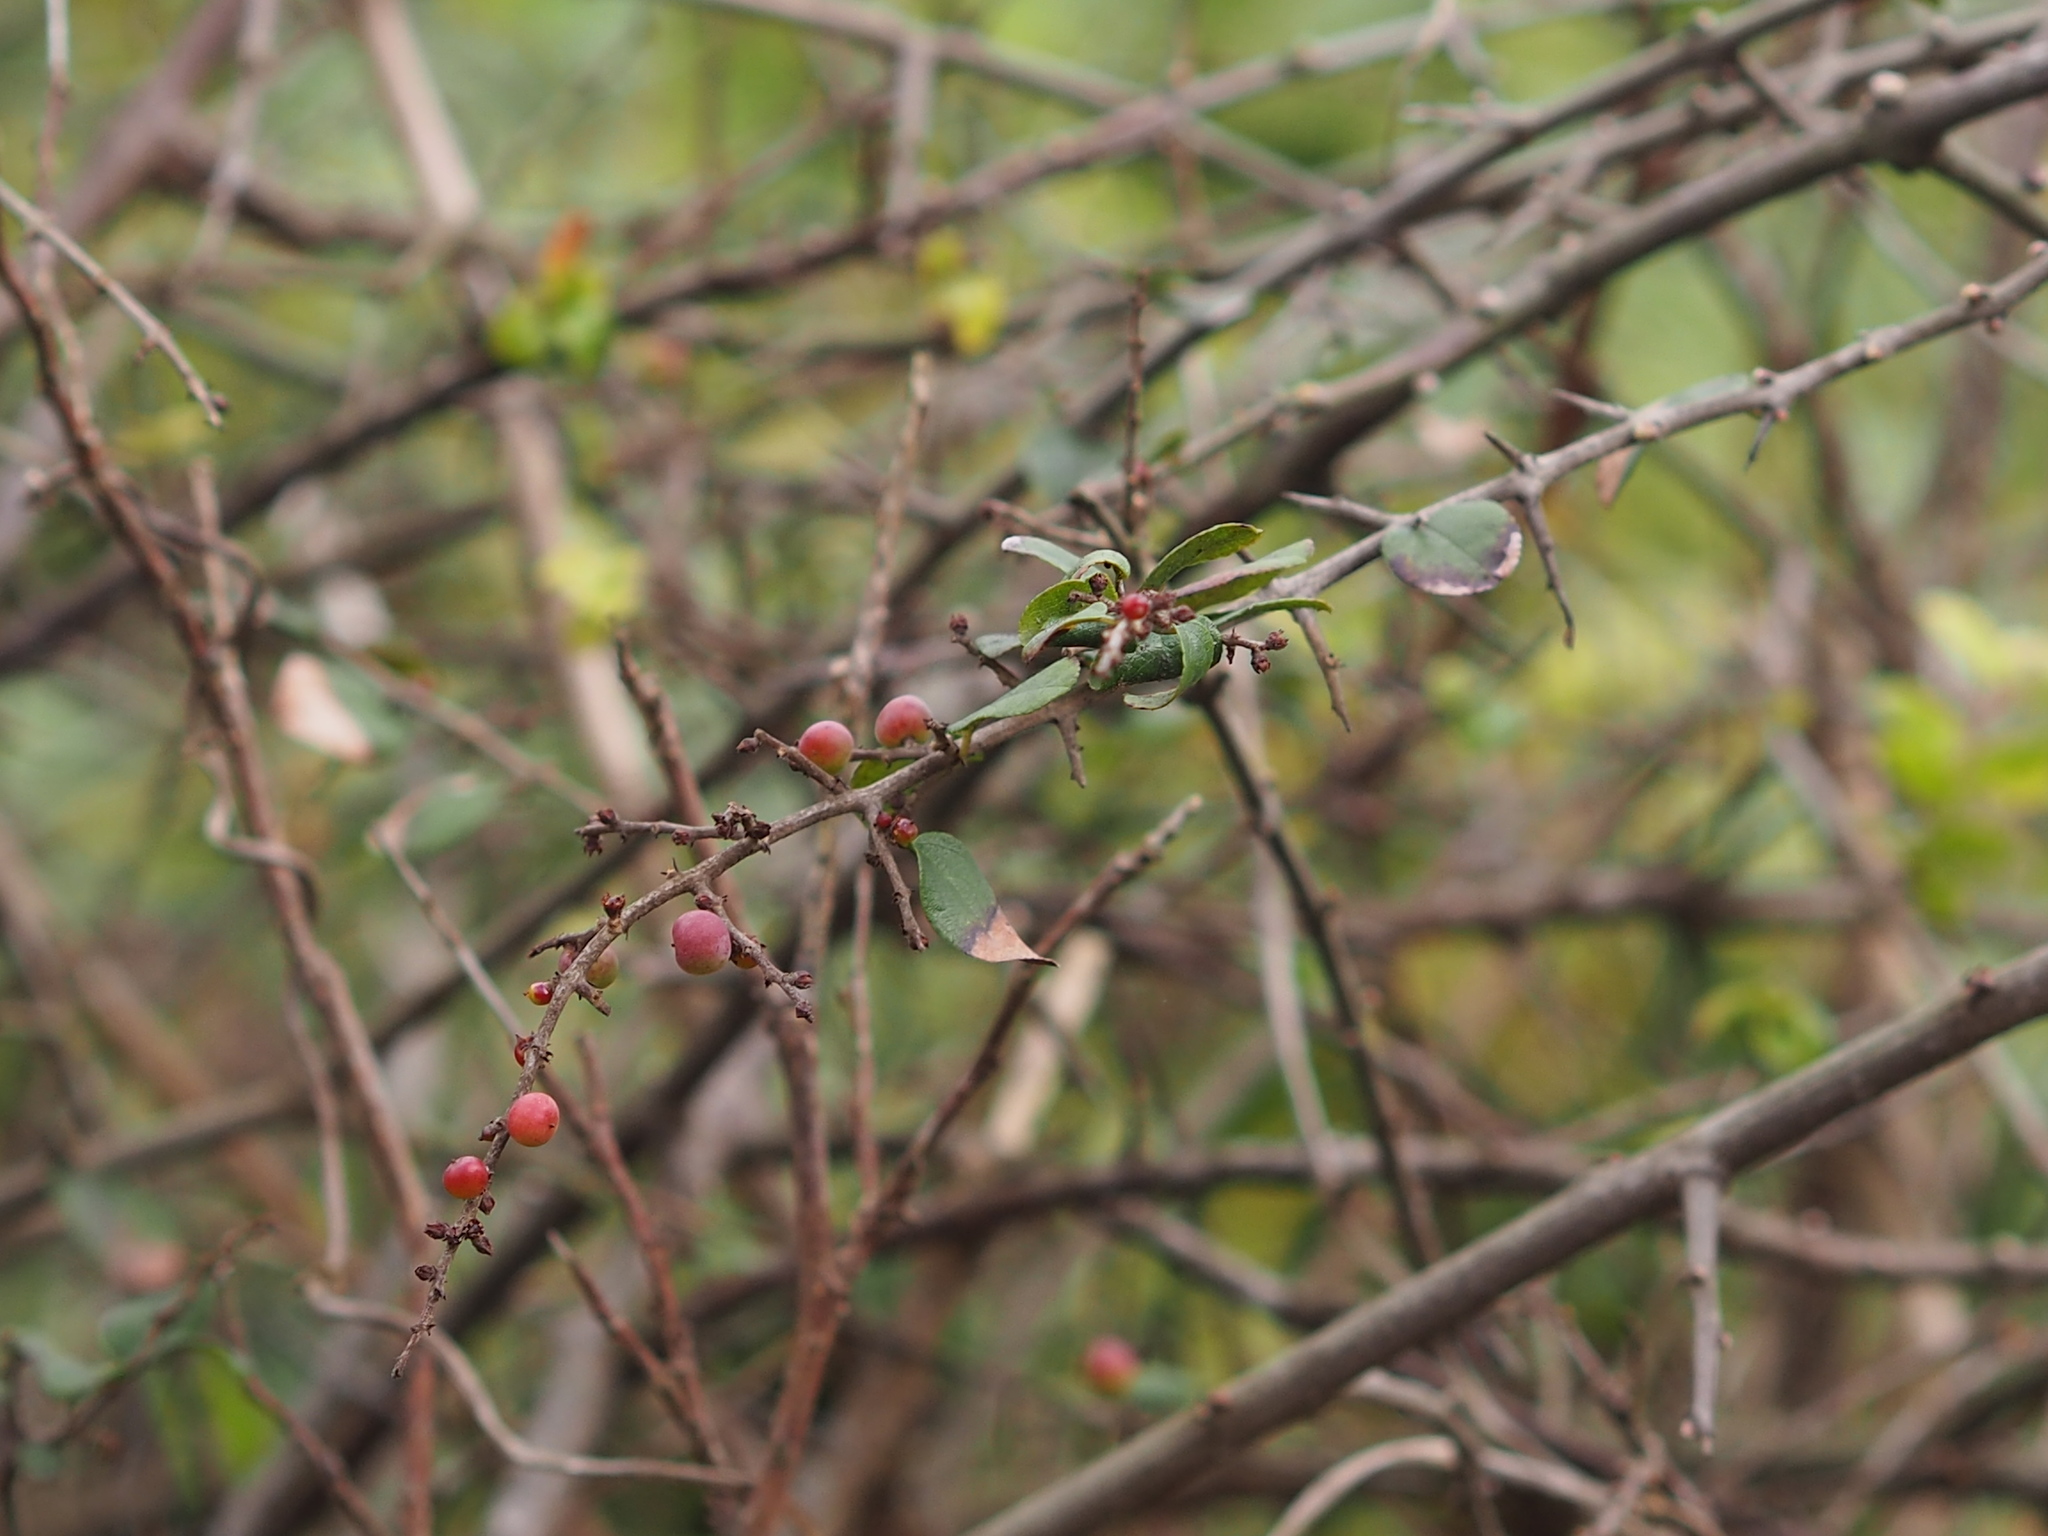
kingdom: Plantae
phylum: Tracheophyta
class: Magnoliopsida
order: Rosales
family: Rhamnaceae
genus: Sageretia
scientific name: Sageretia thea
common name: Pauper's-tea
